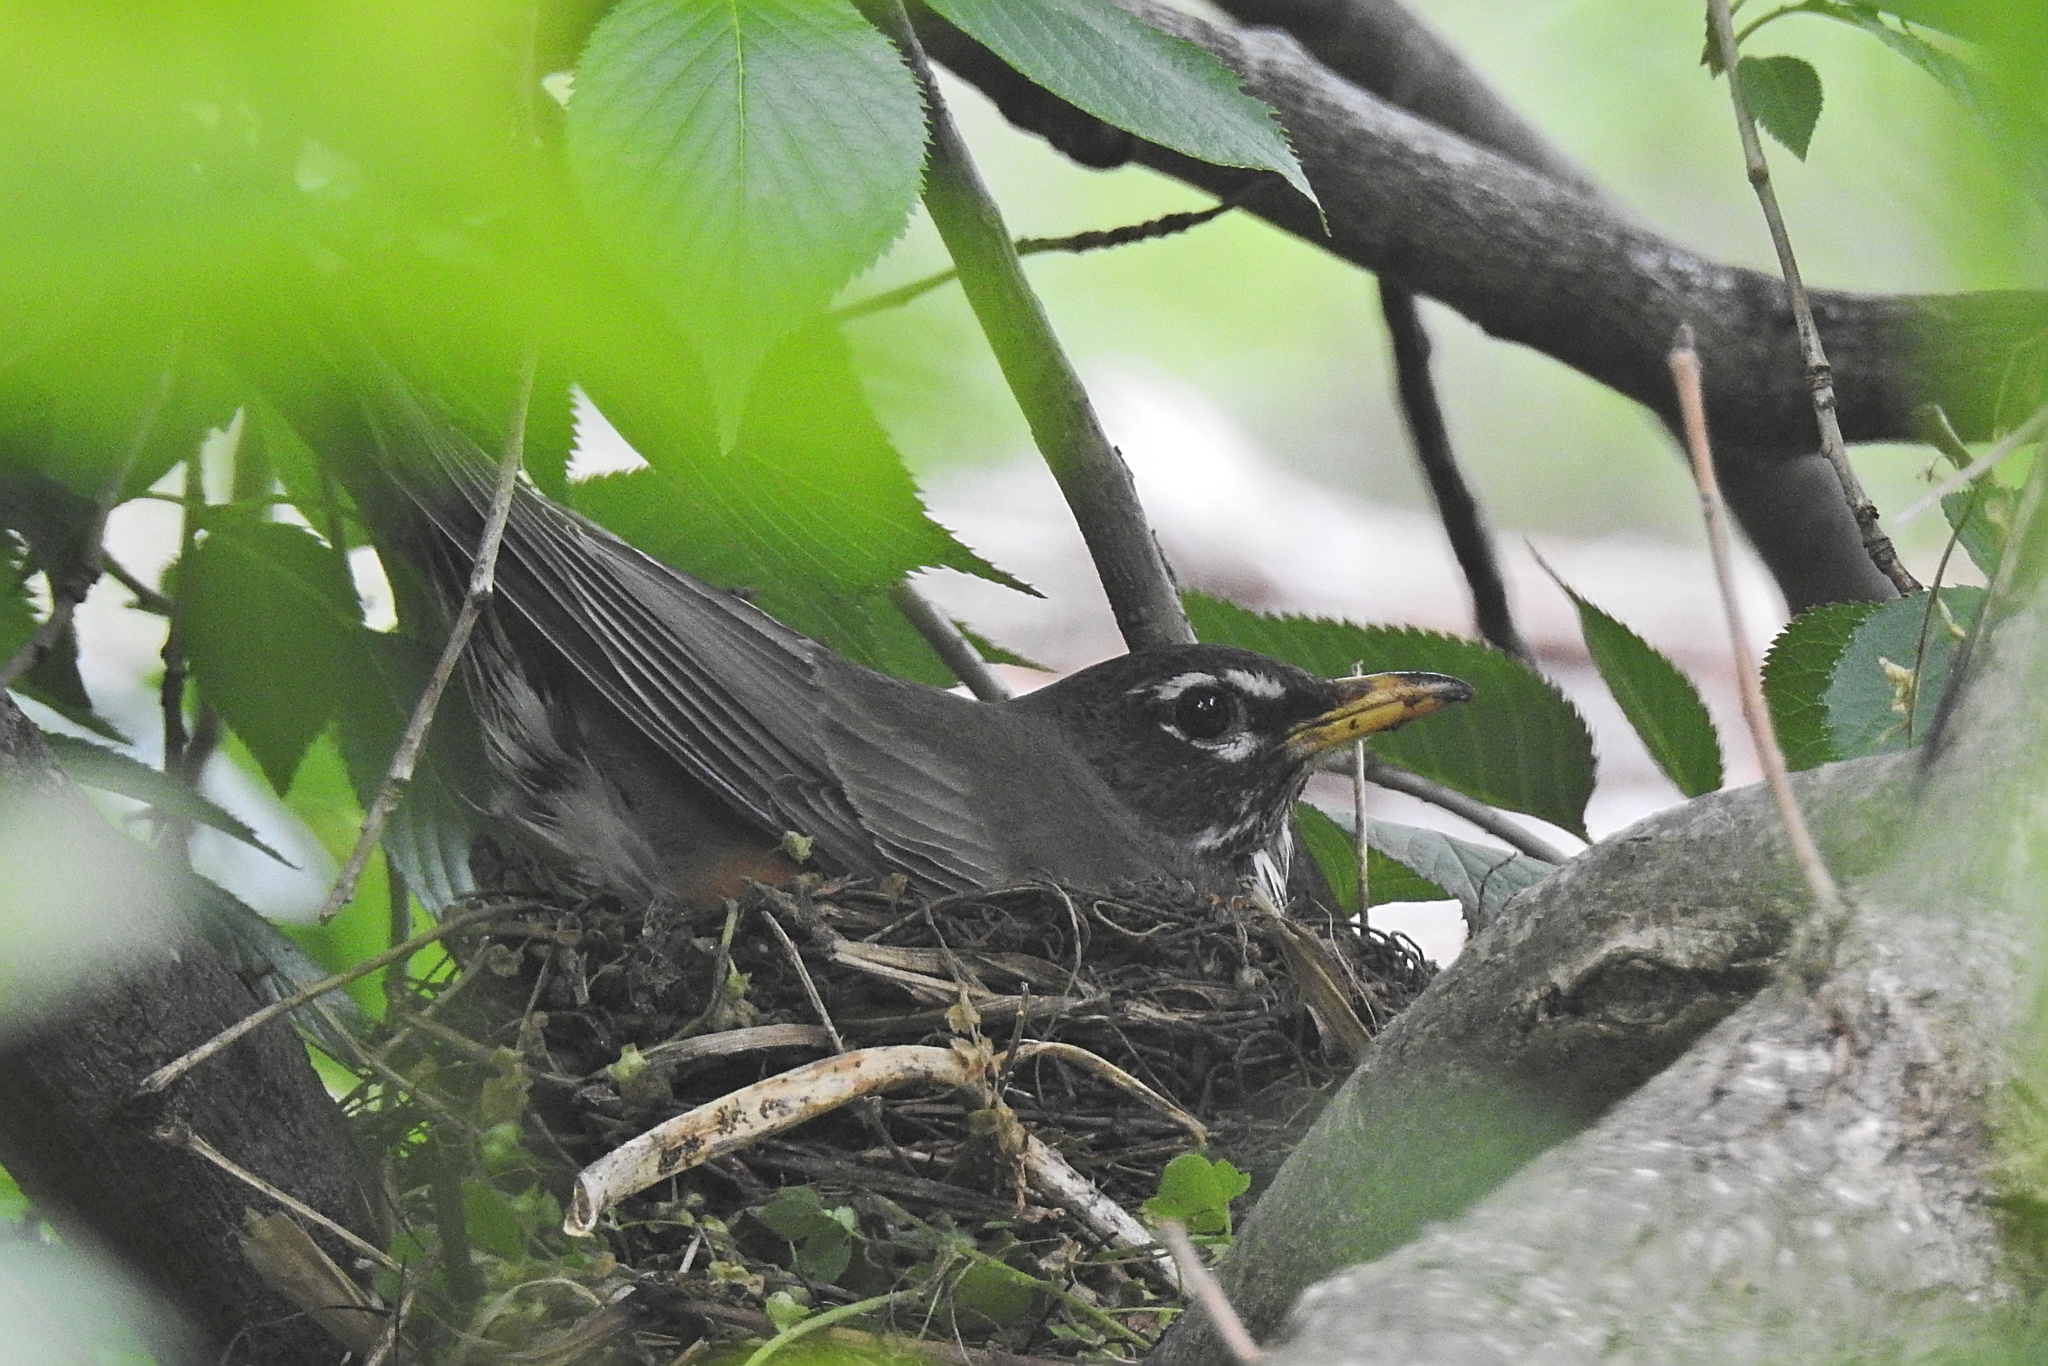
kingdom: Animalia
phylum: Chordata
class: Aves
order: Passeriformes
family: Turdidae
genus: Turdus
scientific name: Turdus migratorius
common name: American robin
